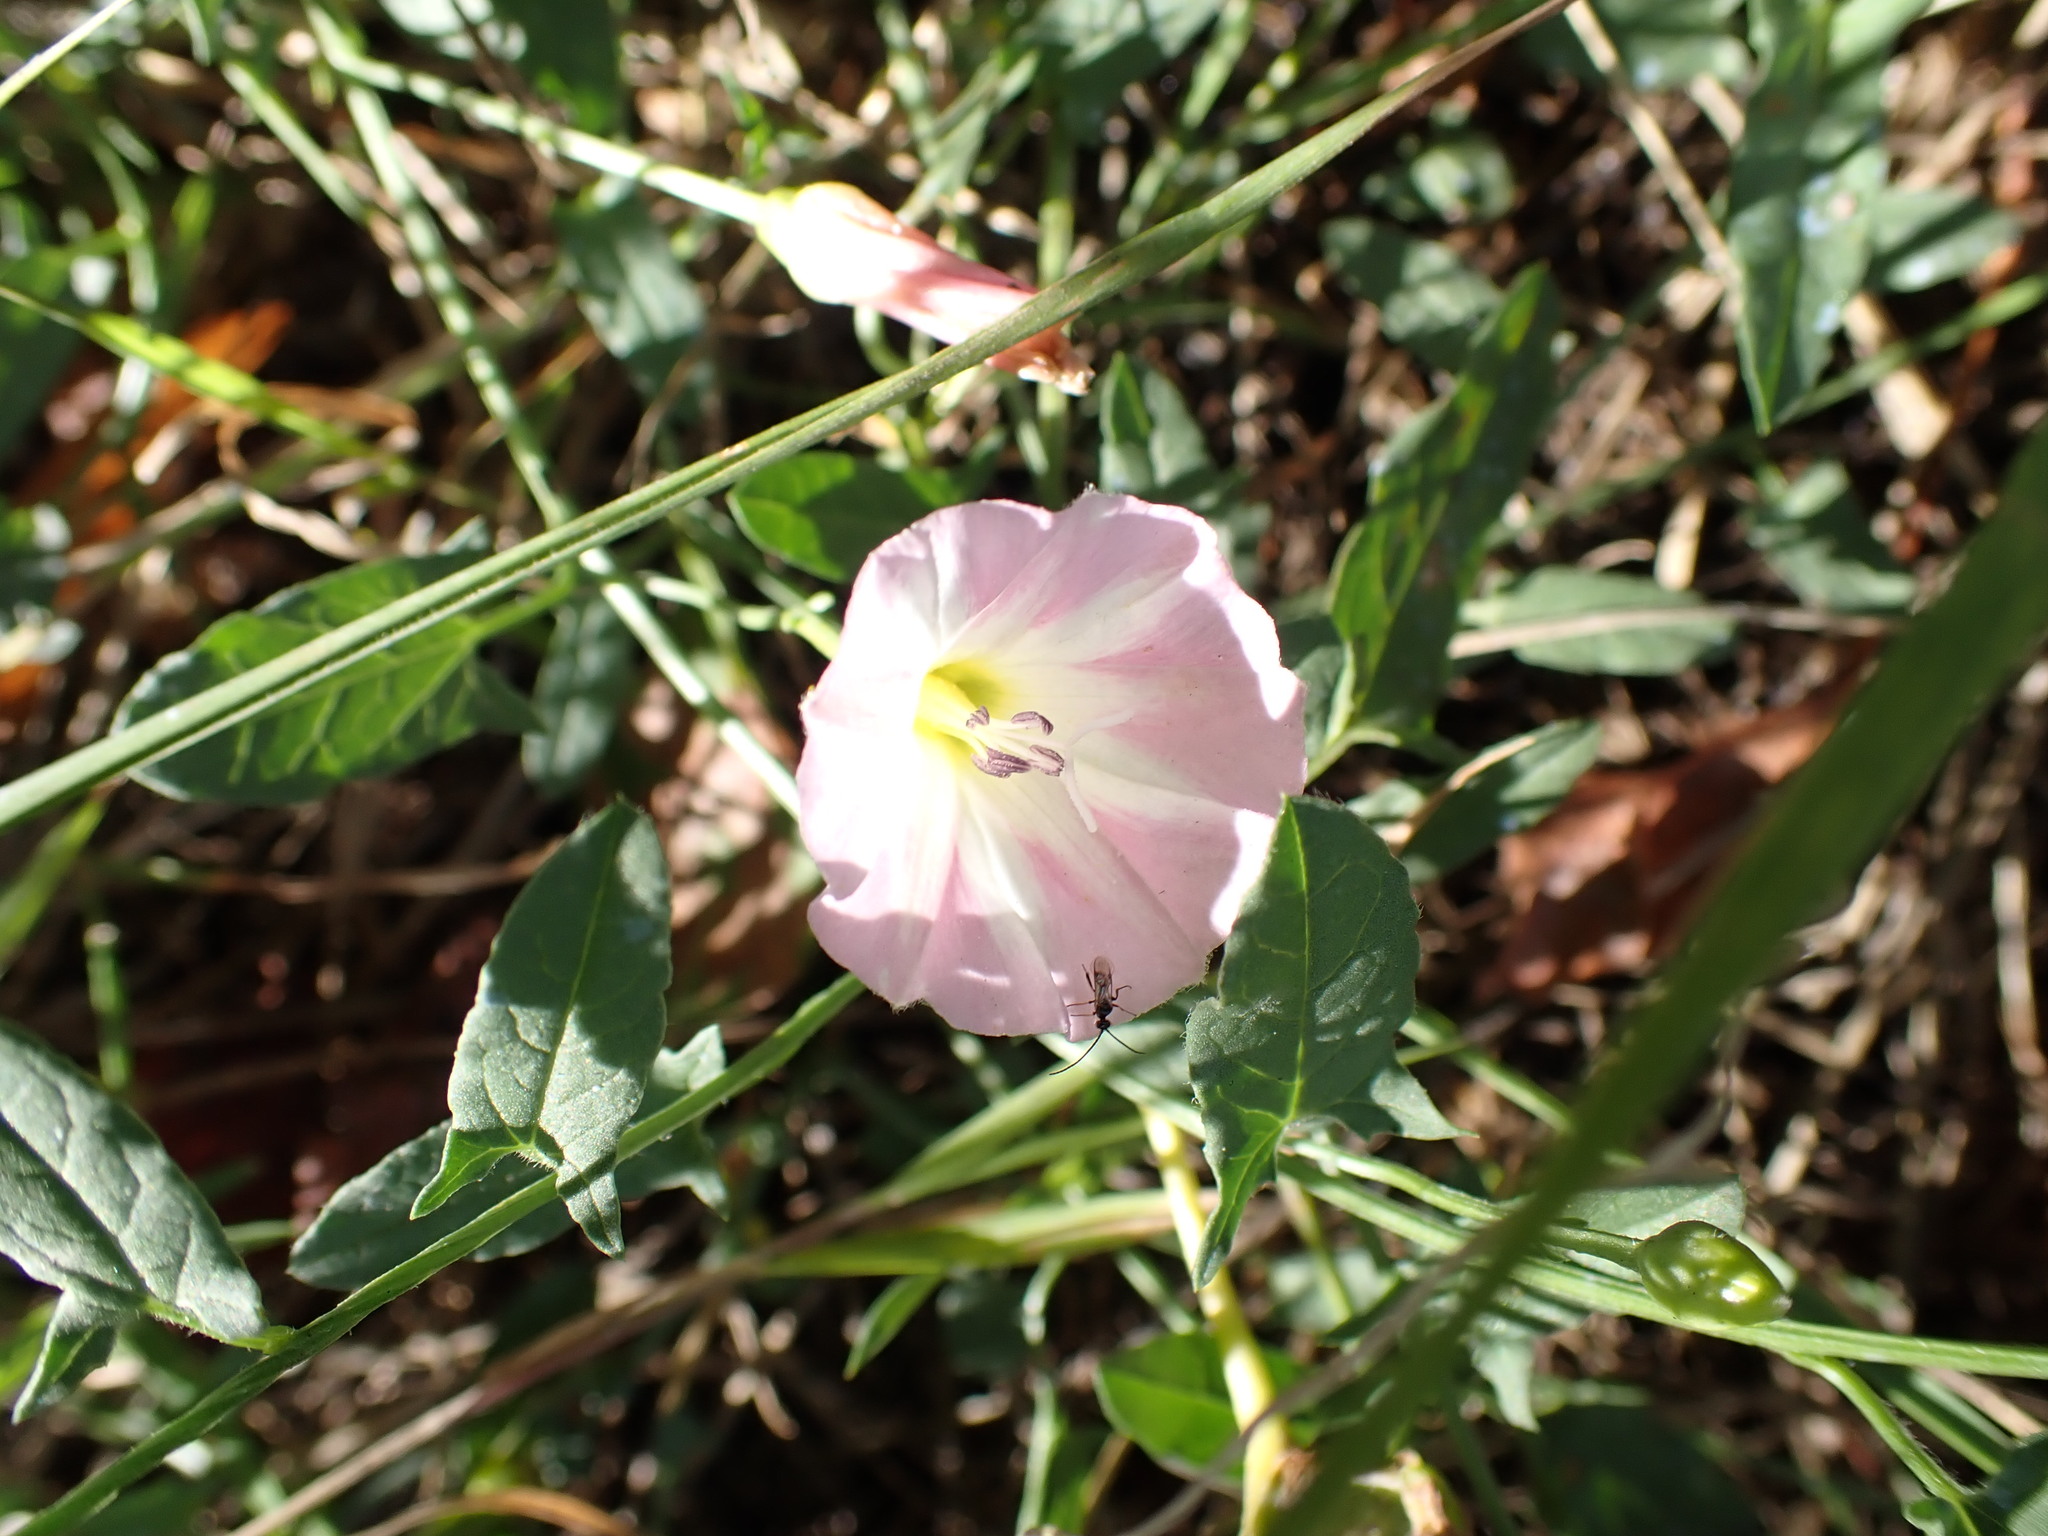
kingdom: Plantae
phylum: Tracheophyta
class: Magnoliopsida
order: Solanales
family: Convolvulaceae
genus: Convolvulus
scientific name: Convolvulus arvensis
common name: Field bindweed
